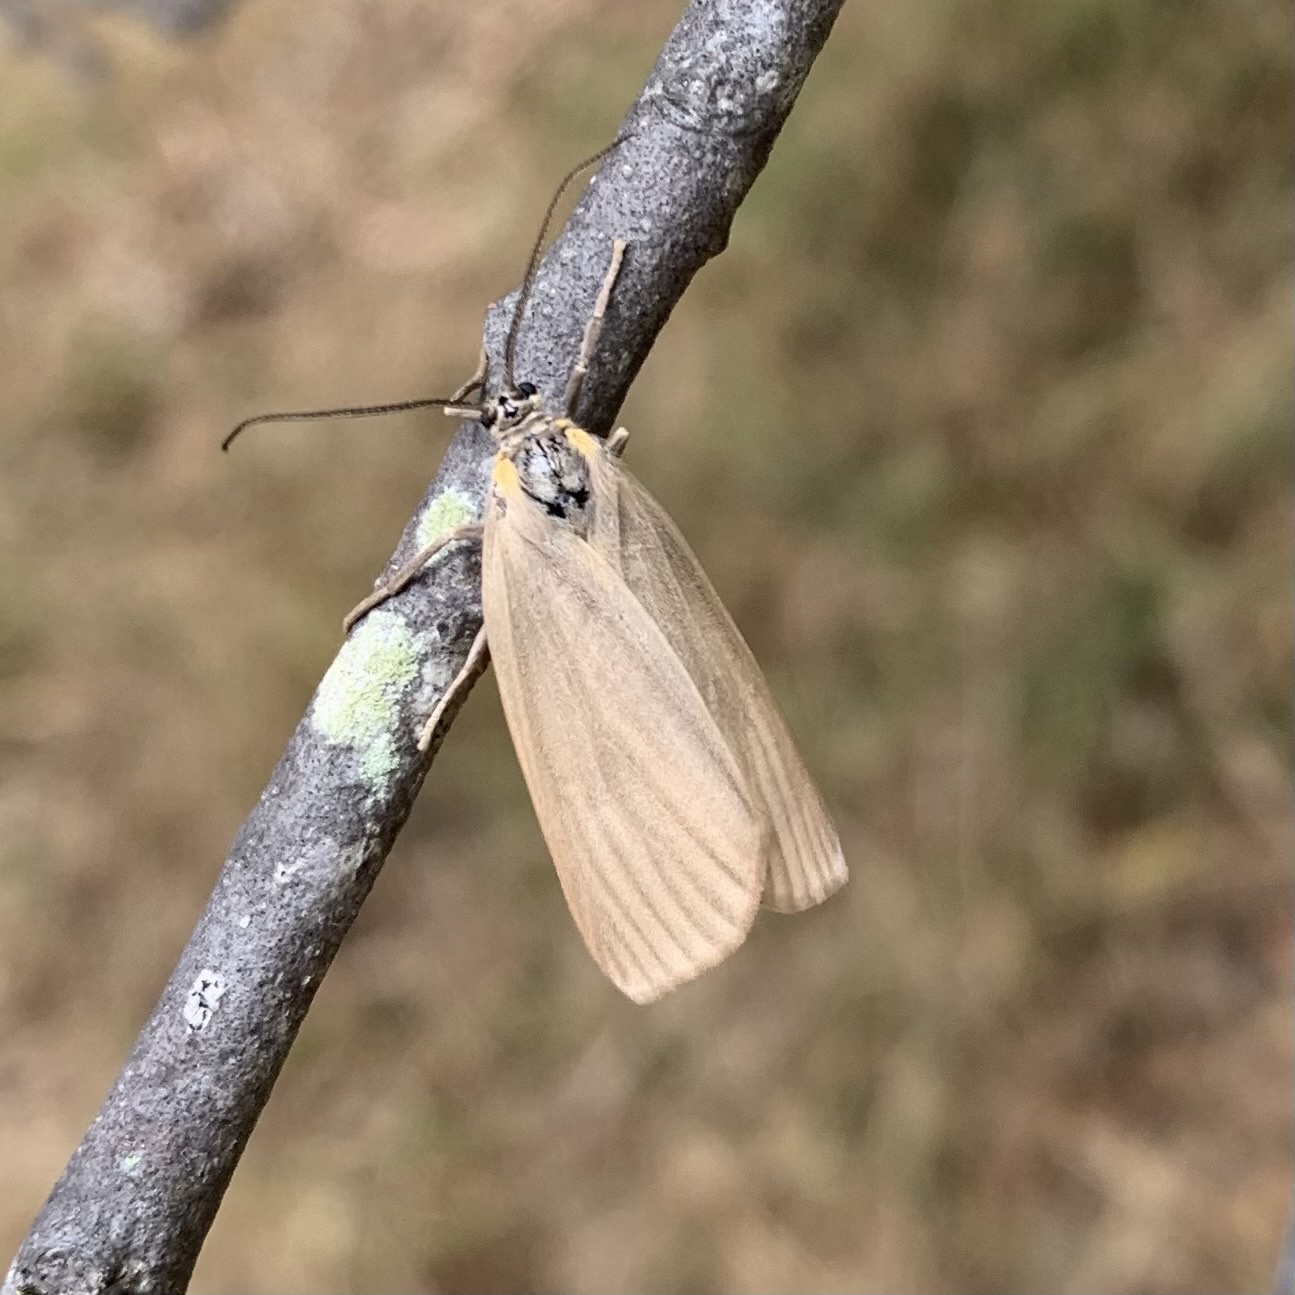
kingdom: Animalia
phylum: Arthropoda
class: Insecta
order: Lepidoptera
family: Notodontidae
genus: Phryganidia
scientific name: Phryganidia californica
